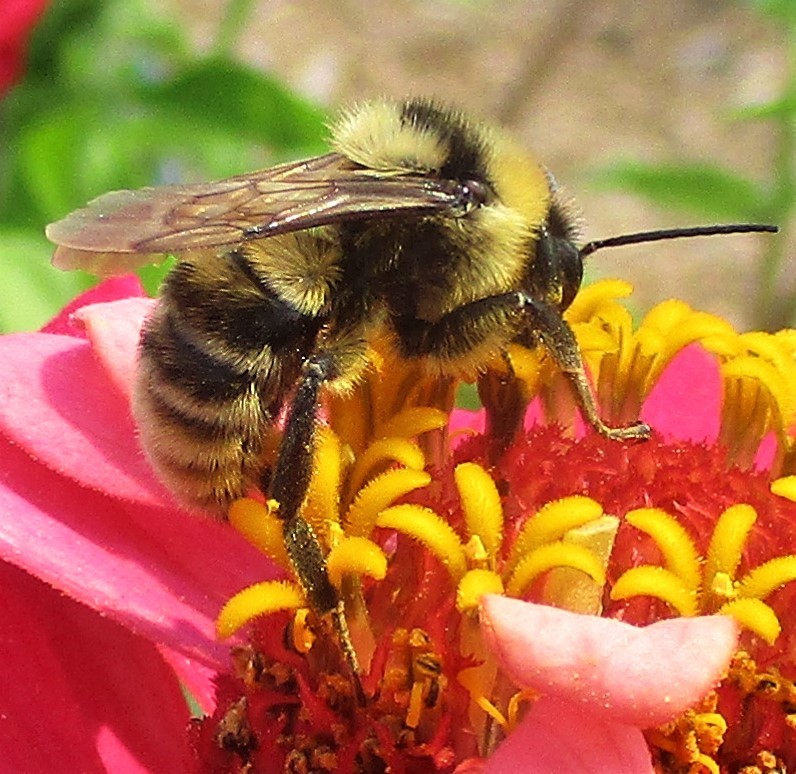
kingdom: Animalia
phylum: Arthropoda
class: Insecta
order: Hymenoptera
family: Apidae
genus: Bombus
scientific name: Bombus californicus
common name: California bumble bee
